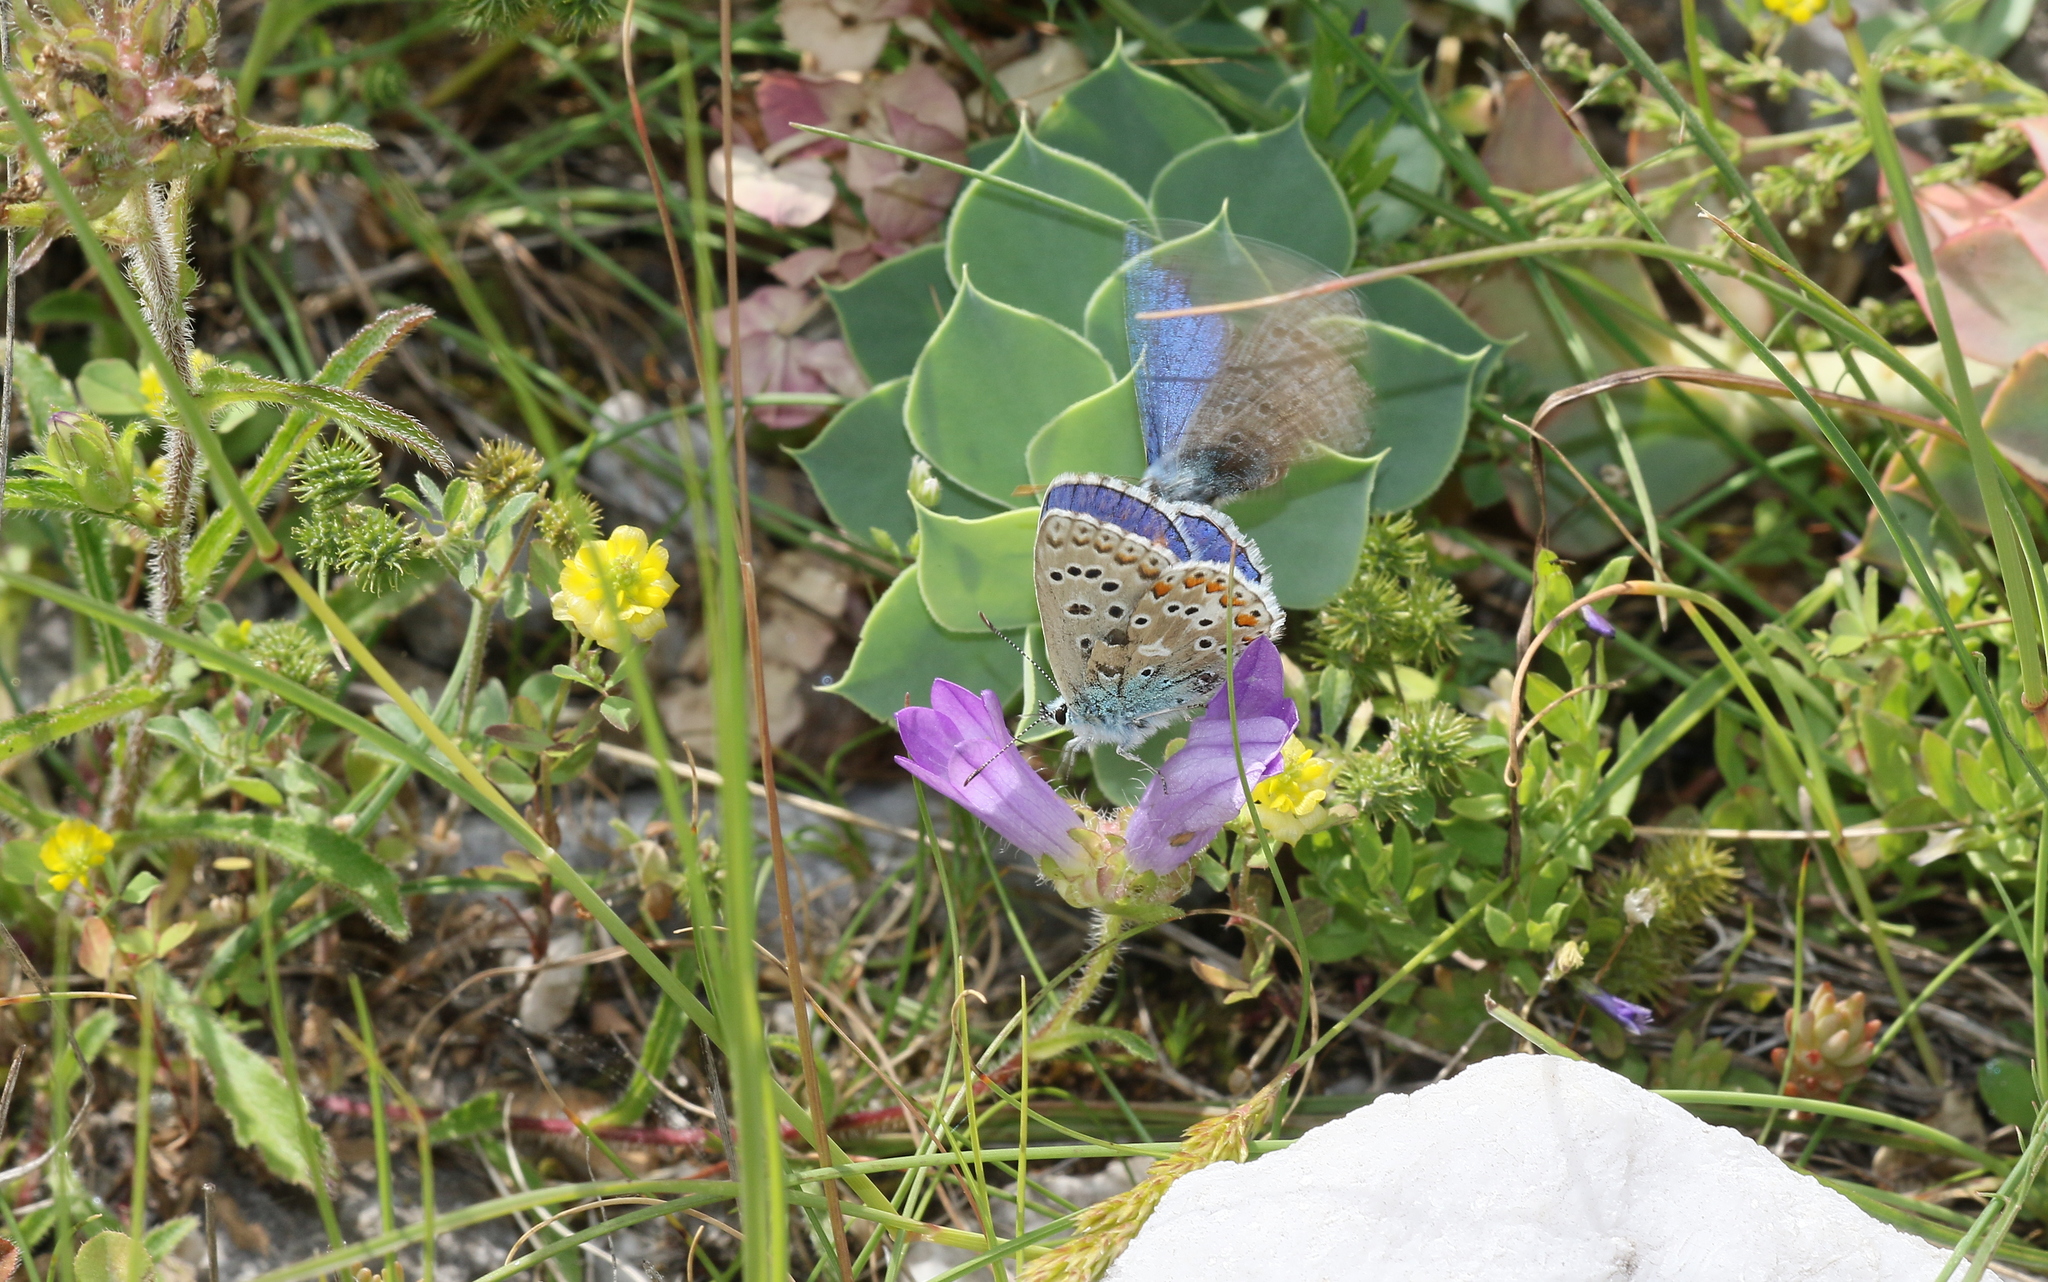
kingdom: Animalia
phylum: Arthropoda
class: Insecta
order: Lepidoptera
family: Lycaenidae
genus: Lysandra
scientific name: Lysandra bellargus
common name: Adonis blue
